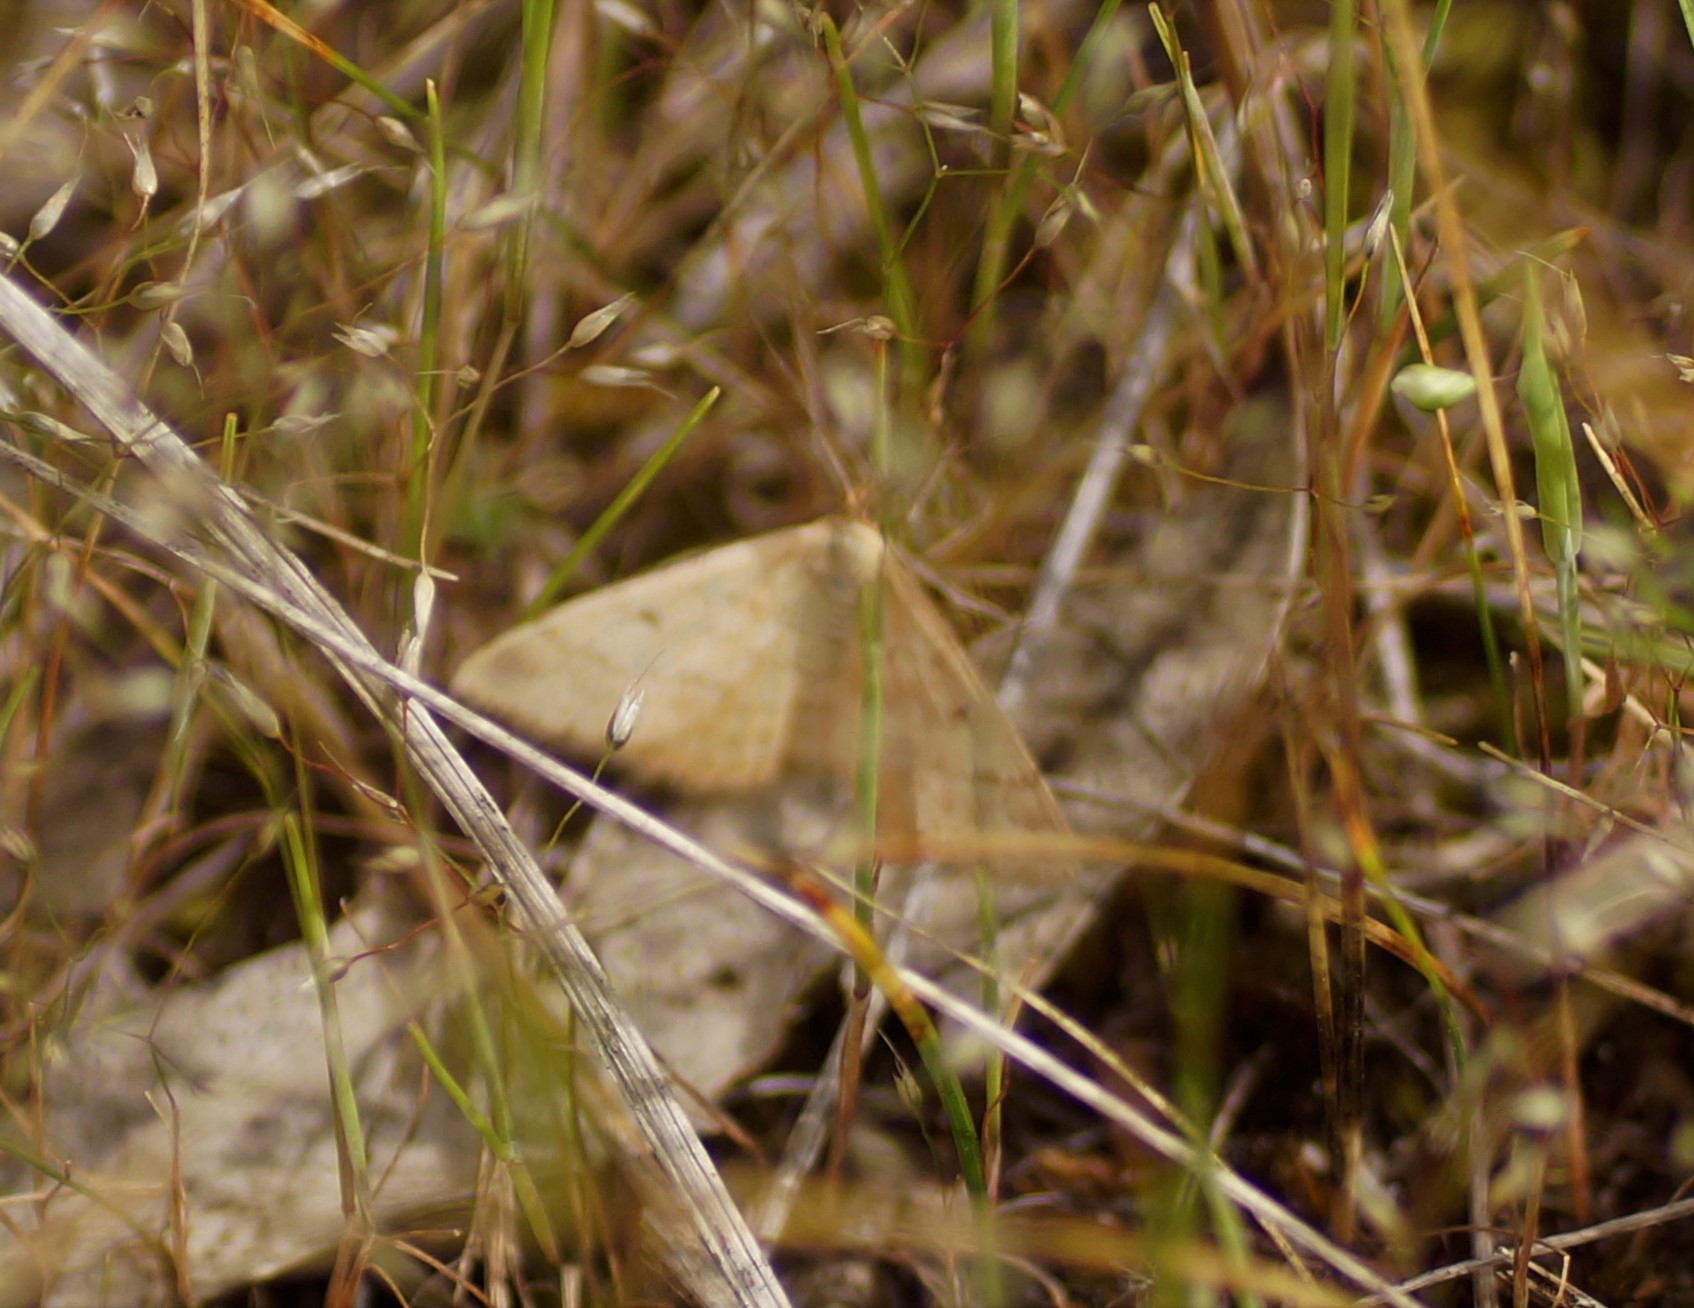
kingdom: Animalia
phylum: Arthropoda
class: Insecta
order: Lepidoptera
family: Geometridae
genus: Scopula
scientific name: Scopula rubraria
